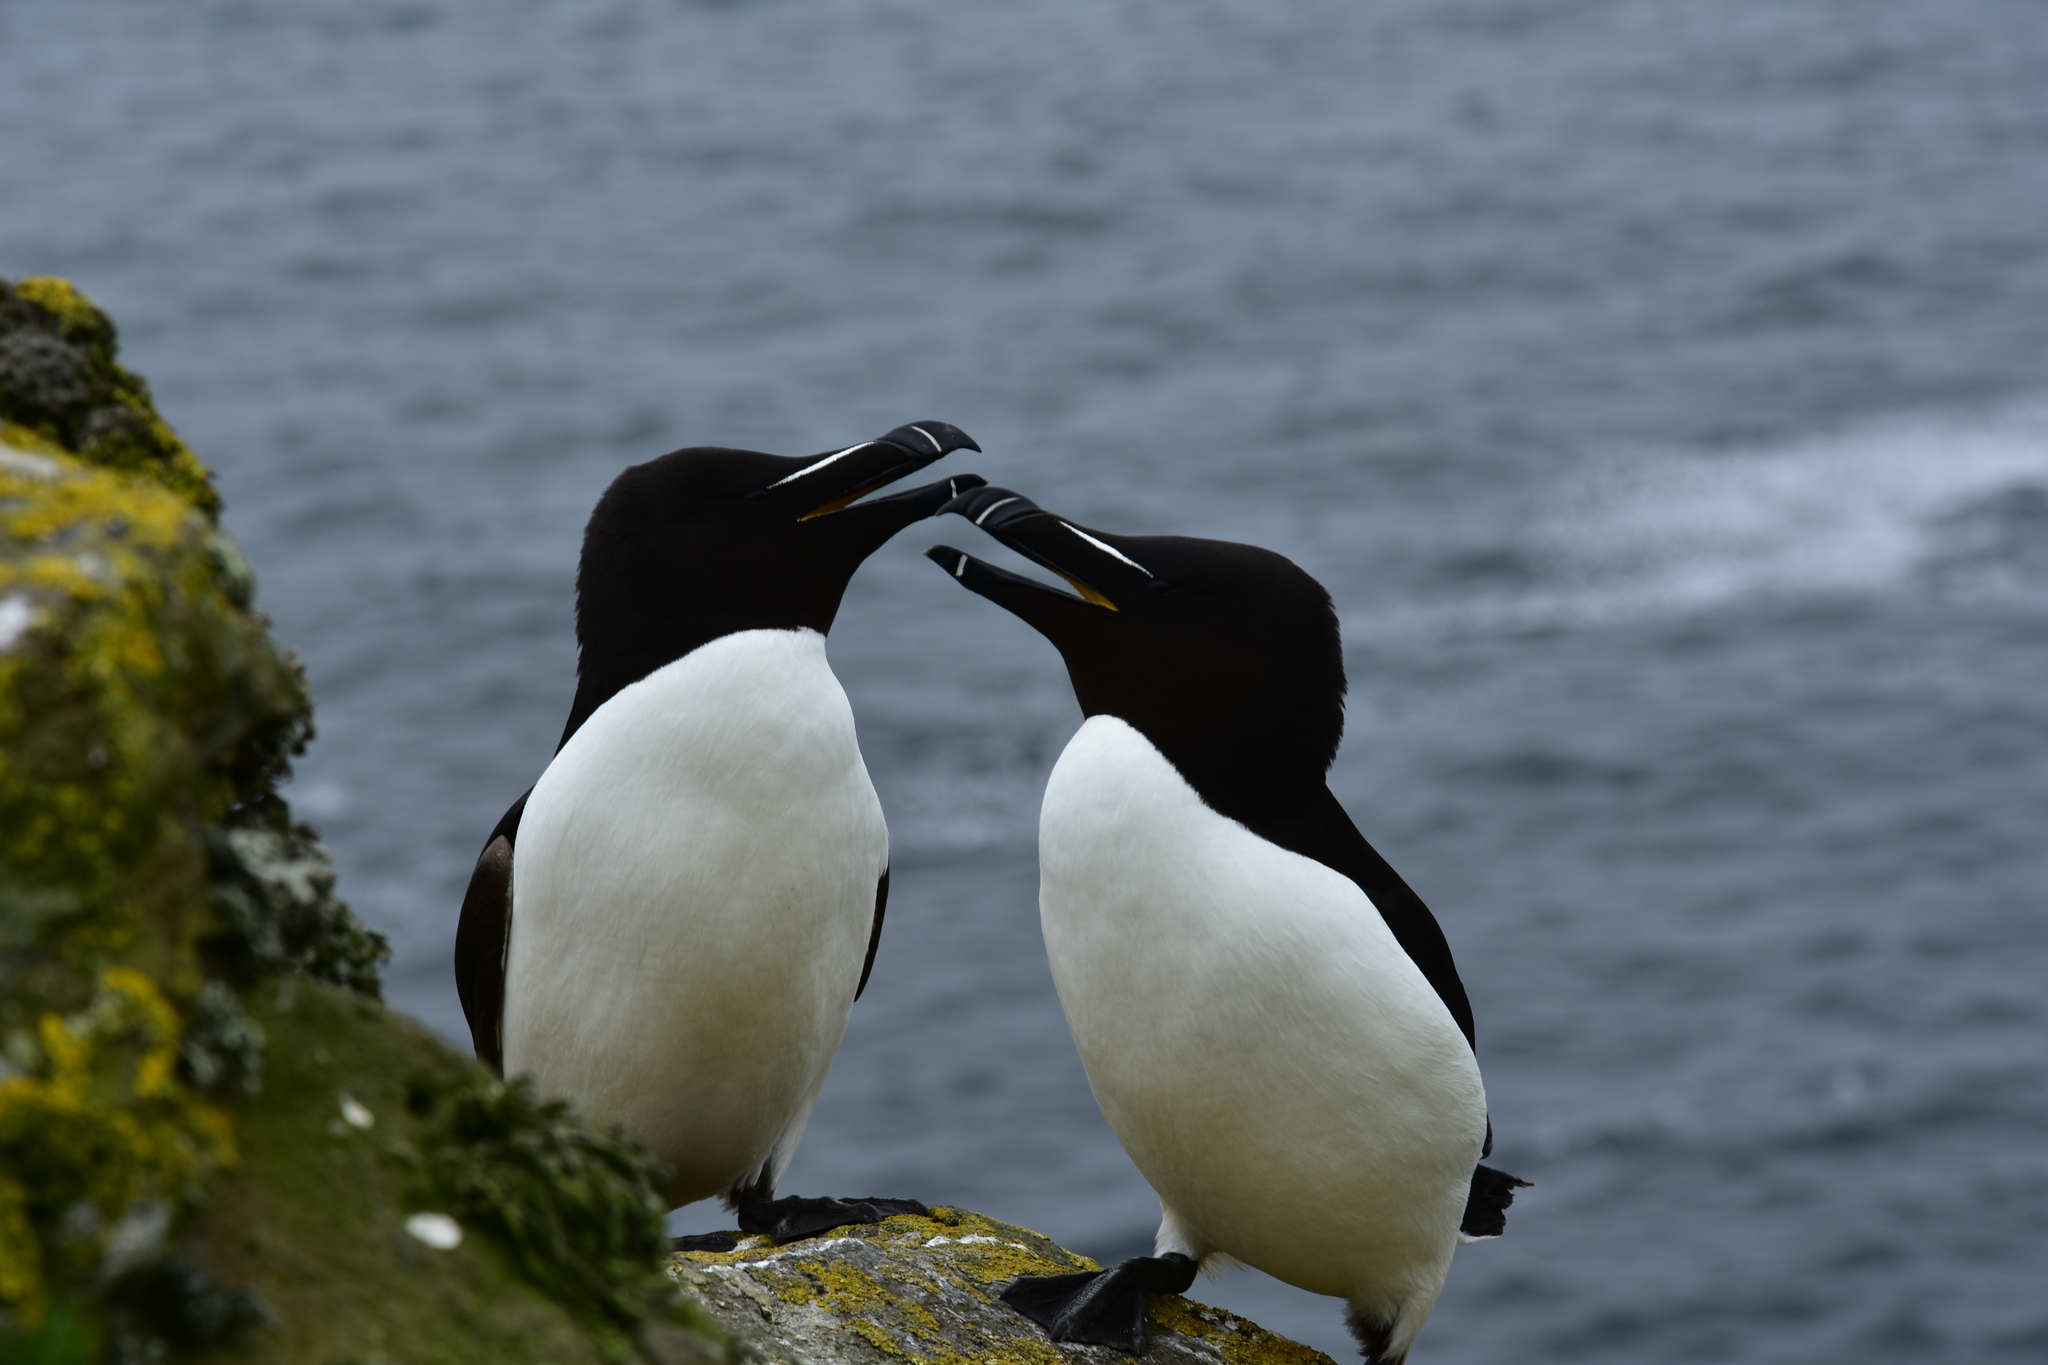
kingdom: Animalia
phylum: Chordata
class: Aves
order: Charadriiformes
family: Alcidae
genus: Alca
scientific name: Alca torda
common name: Razorbill
